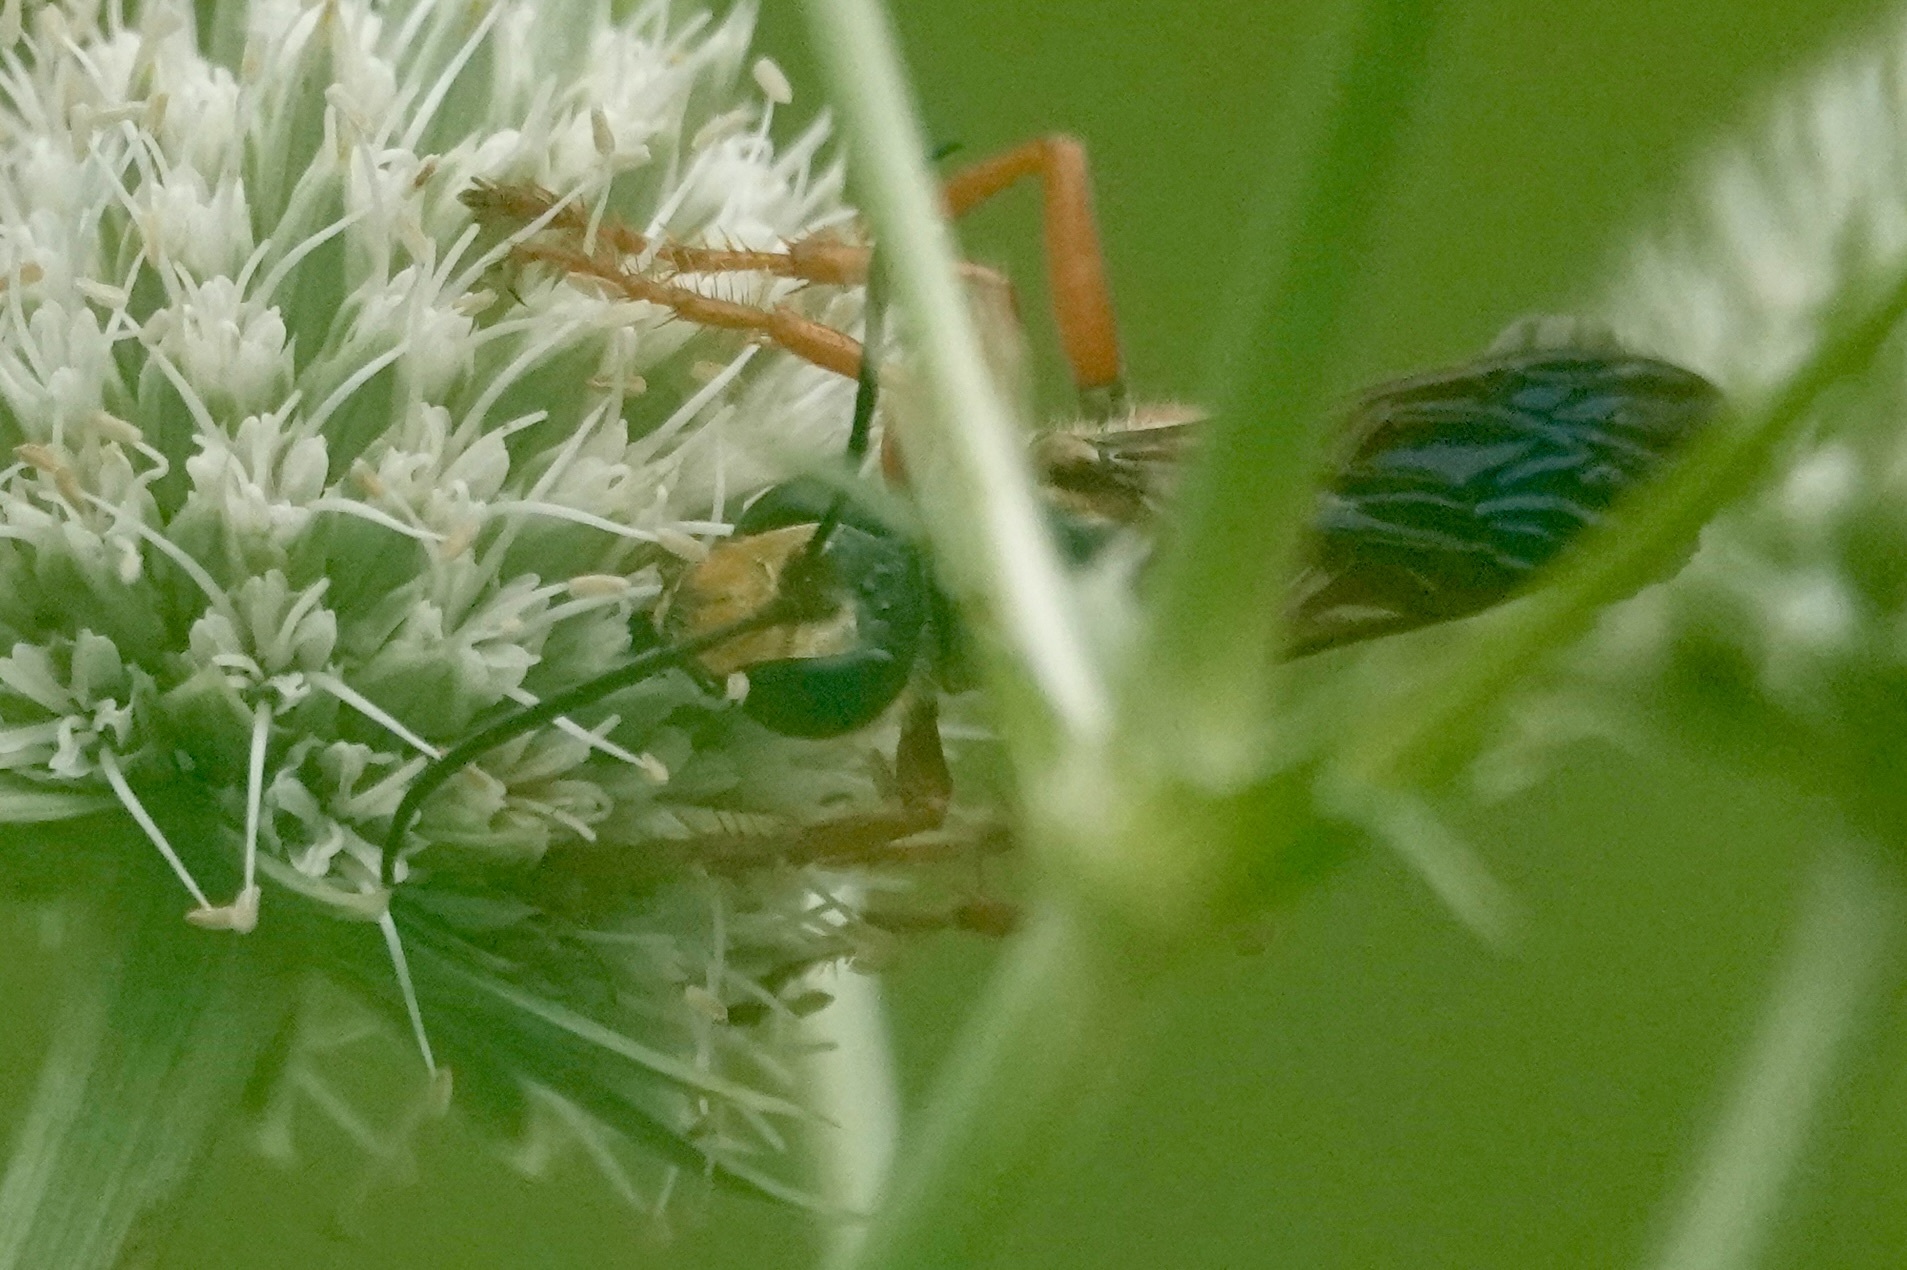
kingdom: Animalia
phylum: Arthropoda
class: Insecta
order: Hymenoptera
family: Sphecidae
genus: Sphex
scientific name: Sphex ichneumoneus
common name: Great golden digger wasp
